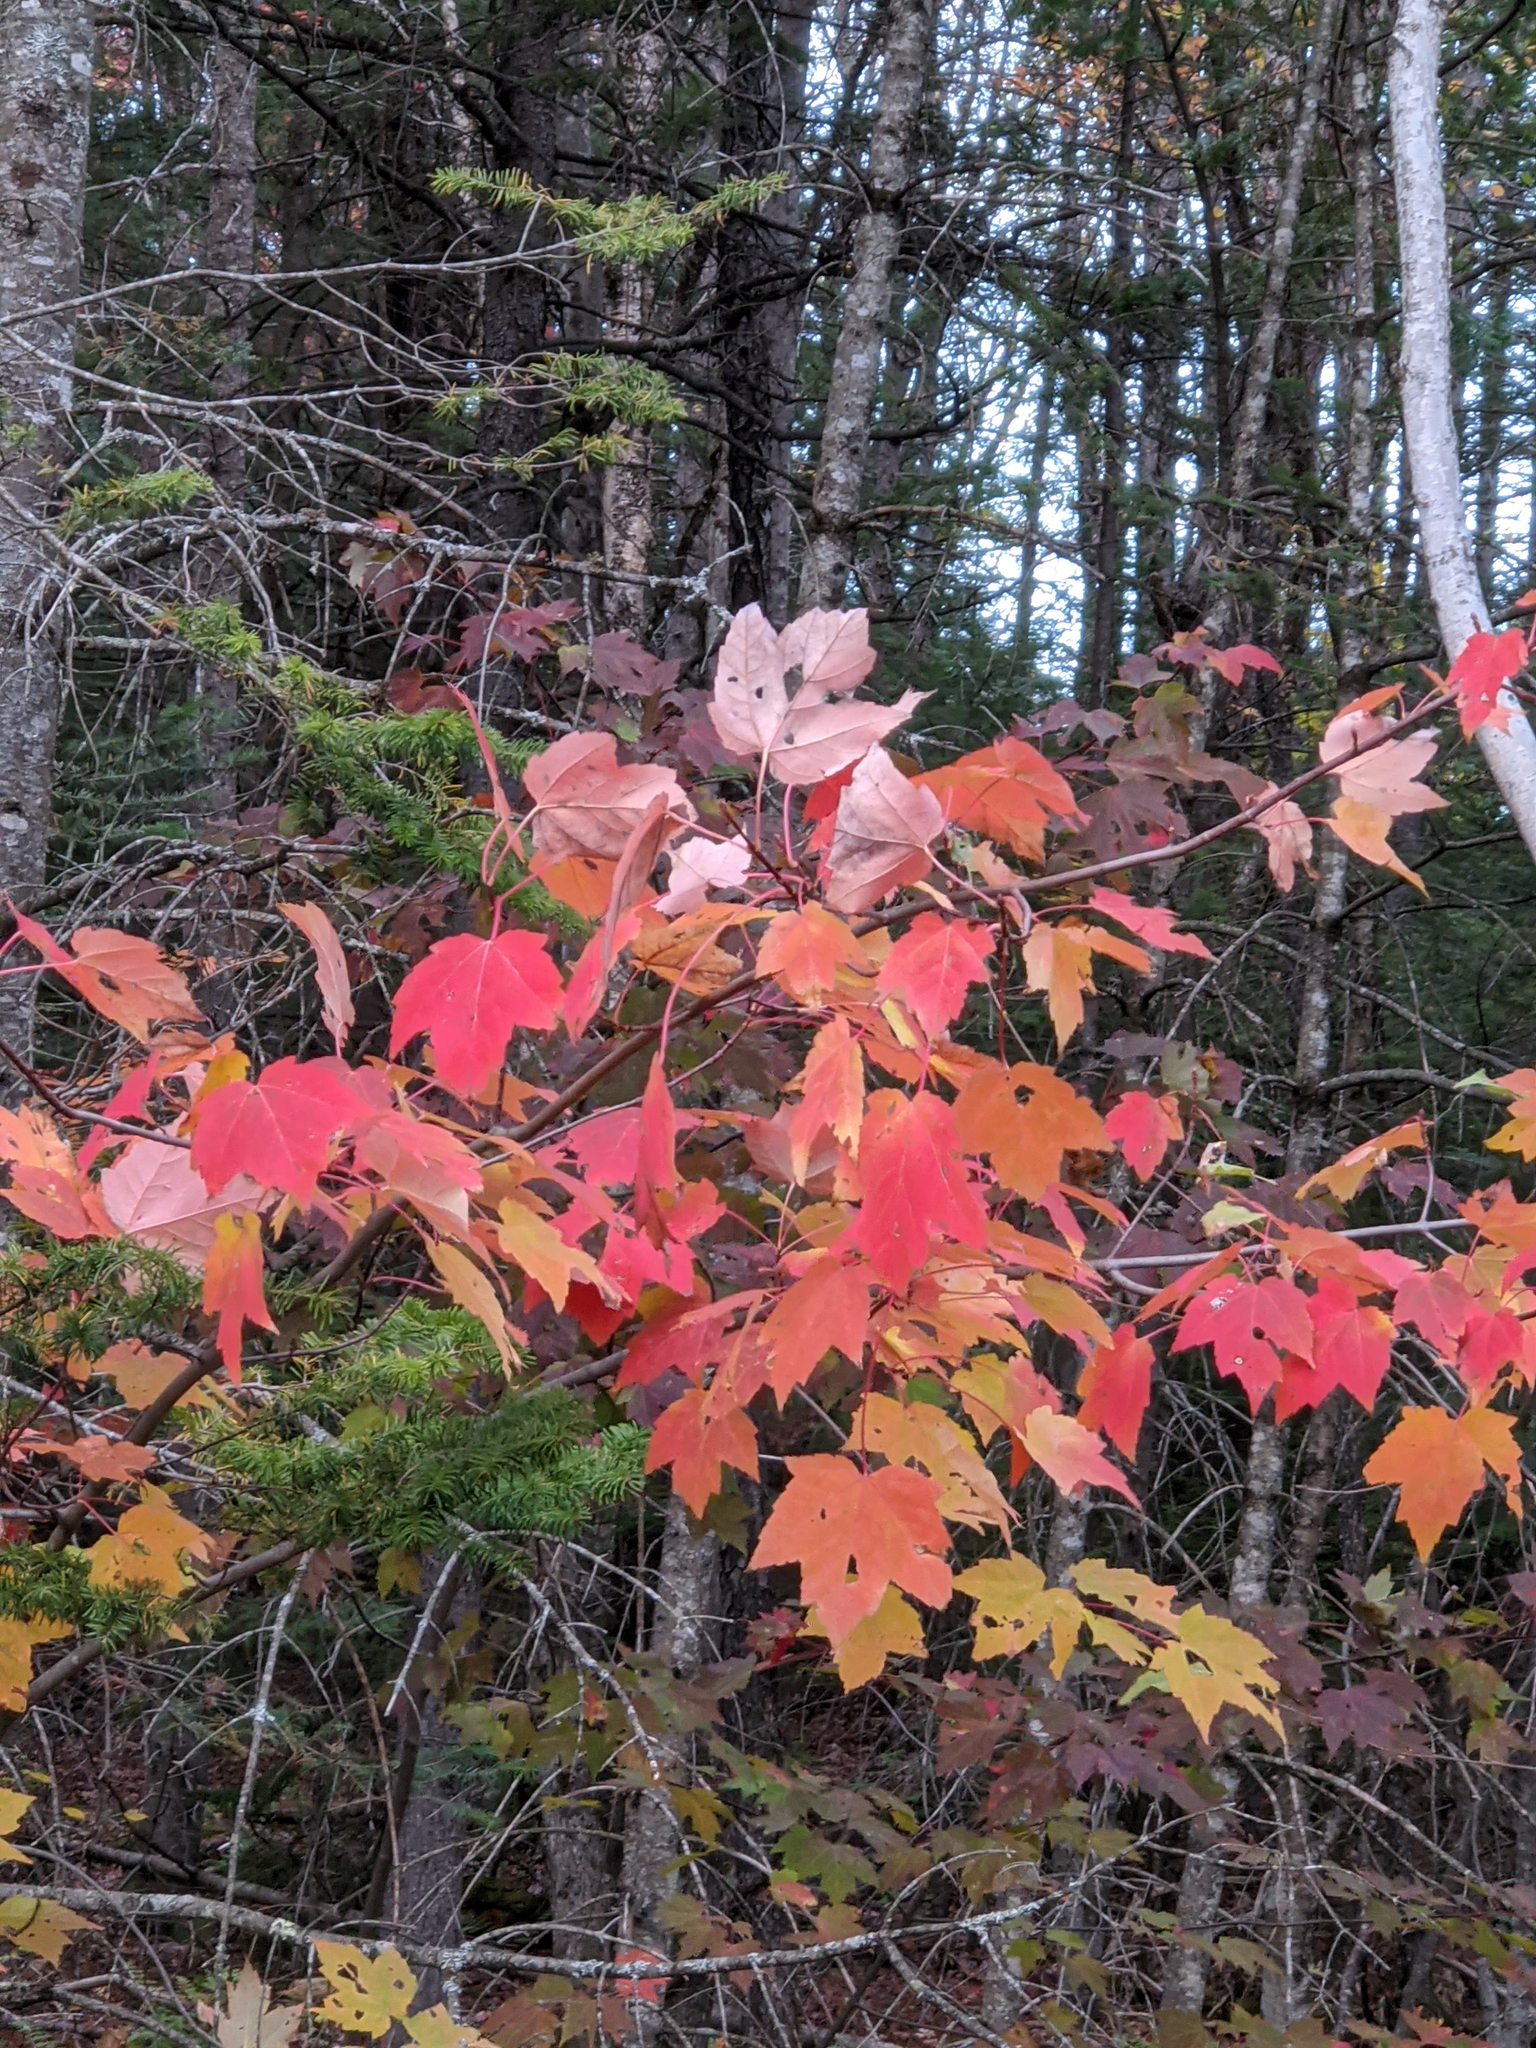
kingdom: Plantae
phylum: Tracheophyta
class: Magnoliopsida
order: Sapindales
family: Sapindaceae
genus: Acer
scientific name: Acer rubrum
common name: Red maple
